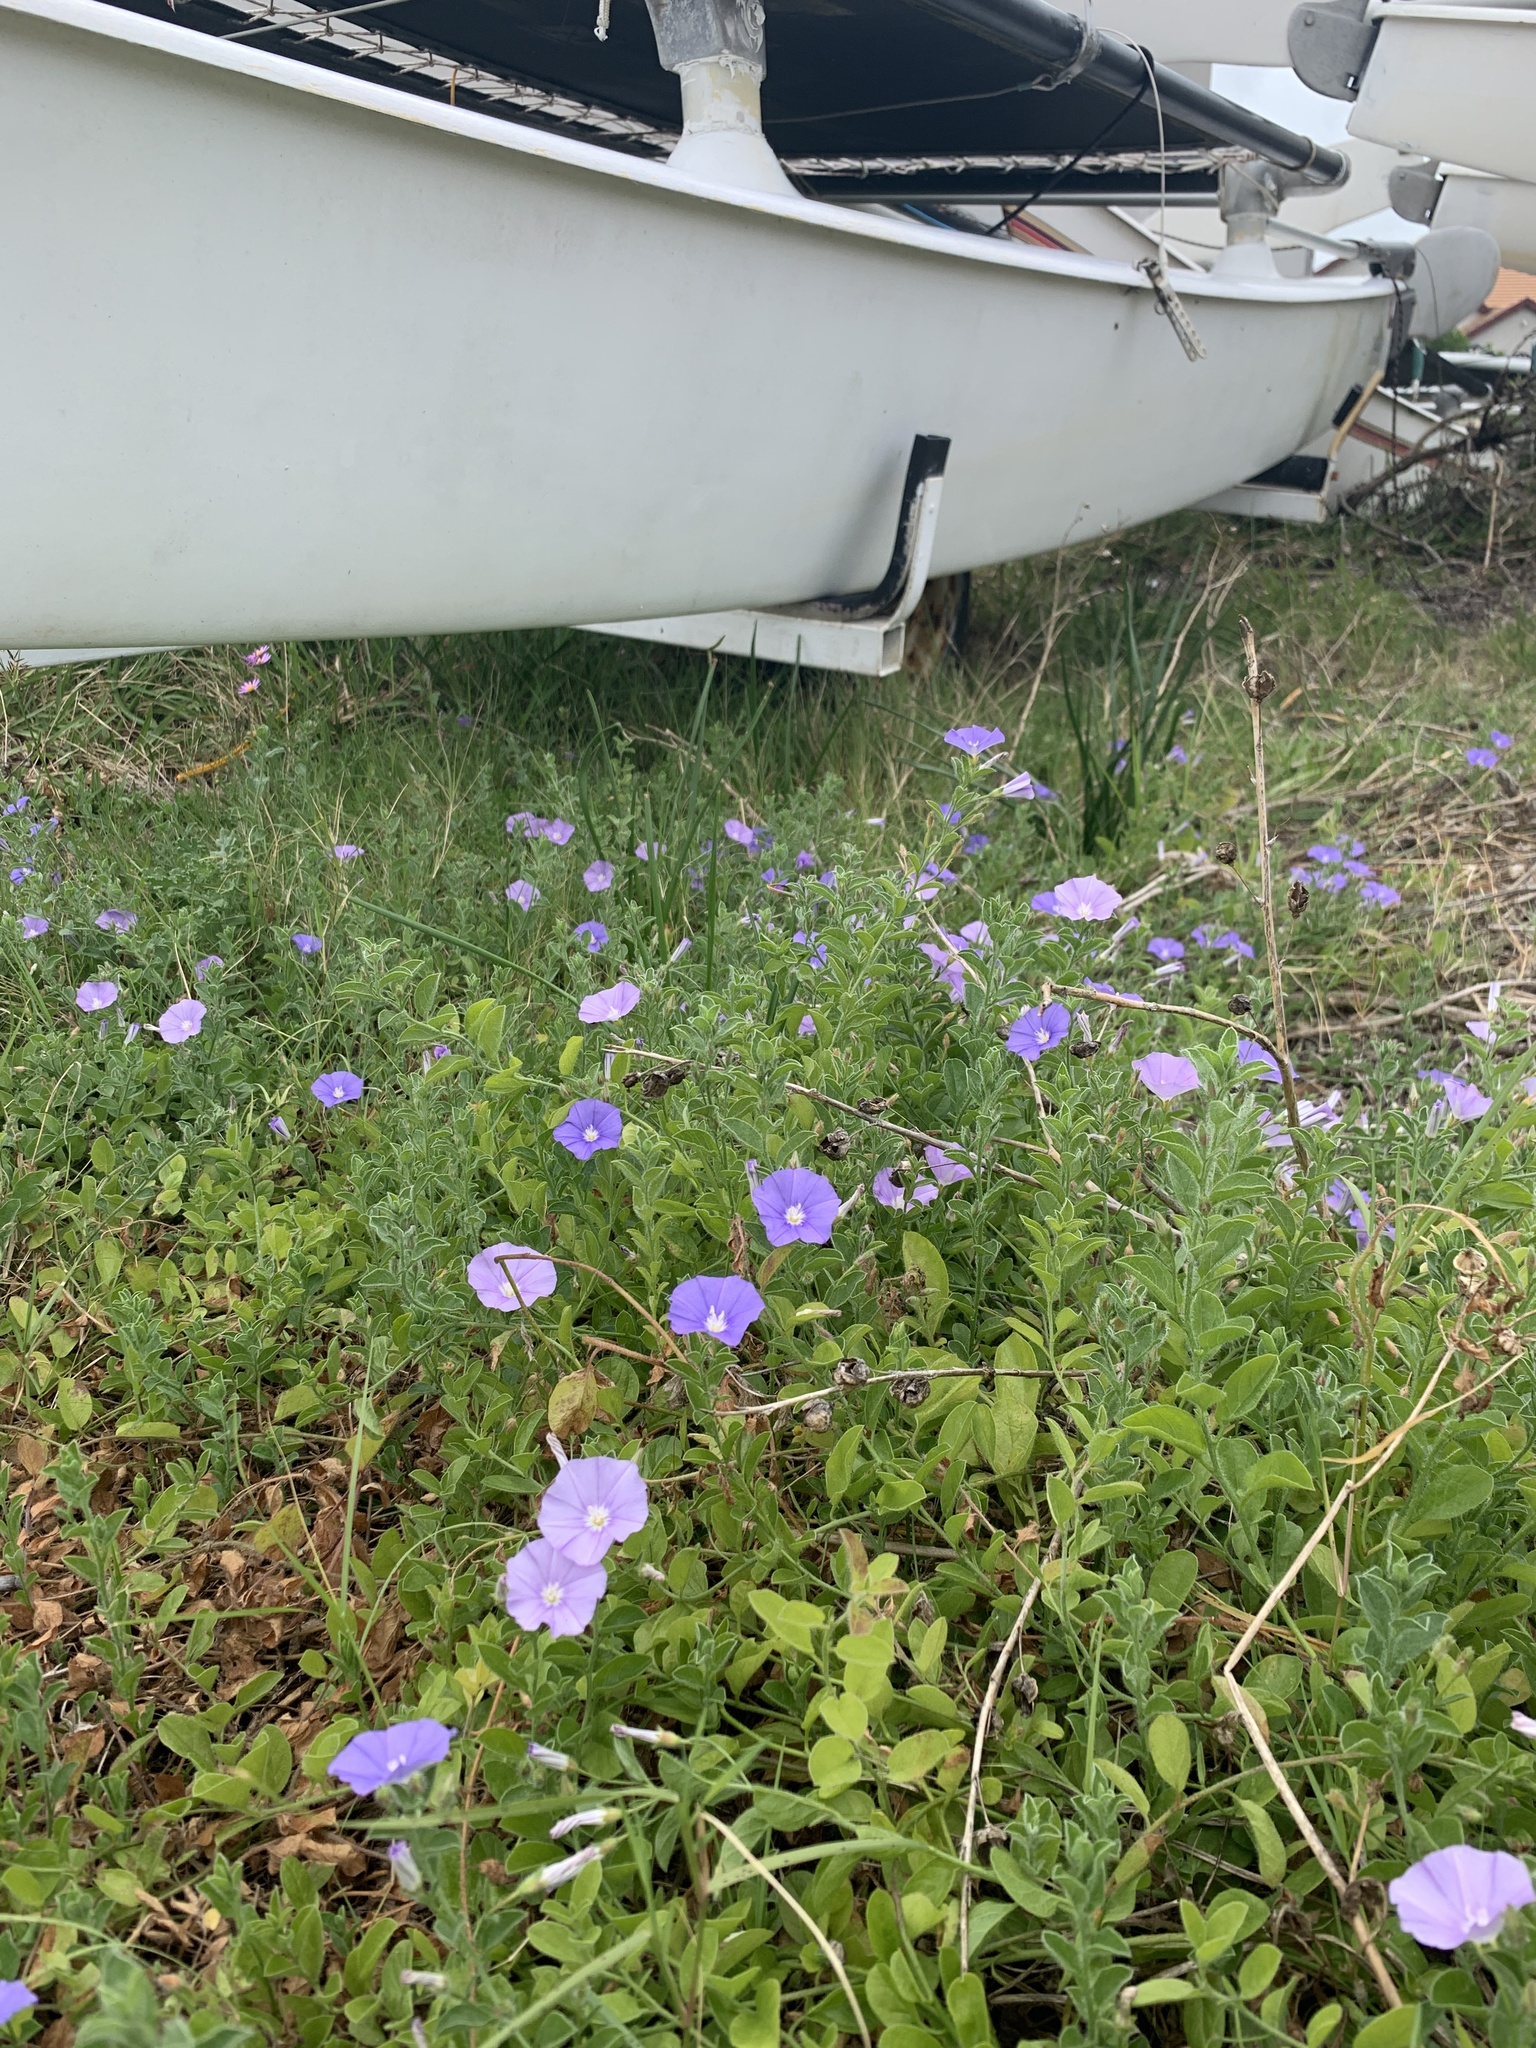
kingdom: Plantae
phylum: Tracheophyta
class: Magnoliopsida
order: Solanales
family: Convolvulaceae
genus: Convolvulus
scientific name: Convolvulus sabatius
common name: Ground blue-convolvulus
